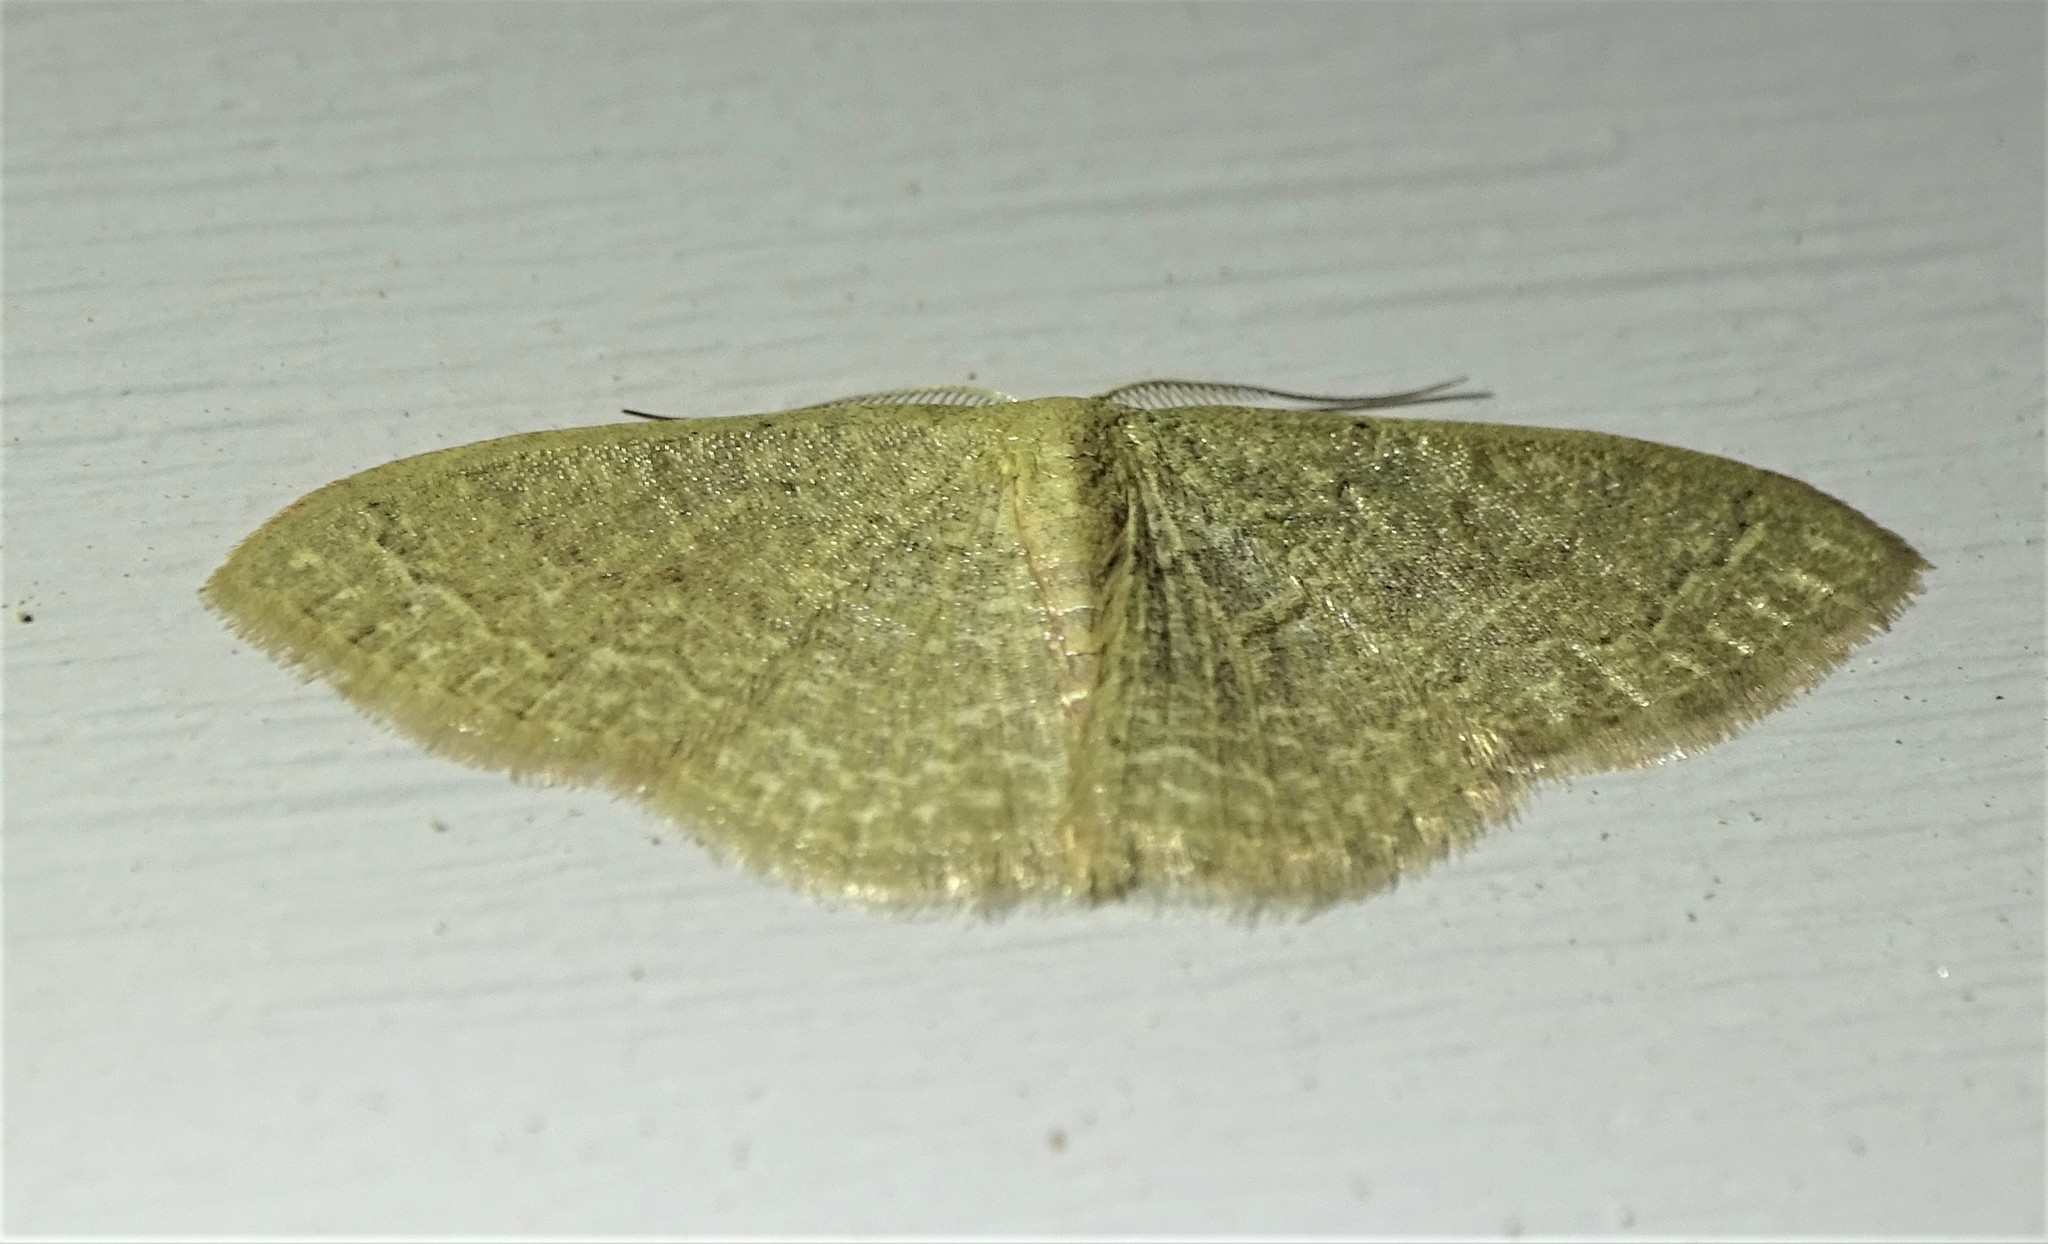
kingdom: Animalia
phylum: Arthropoda
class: Insecta
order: Lepidoptera
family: Geometridae
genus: Pleuroprucha
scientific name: Pleuroprucha insulsaria
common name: Common tan wave
